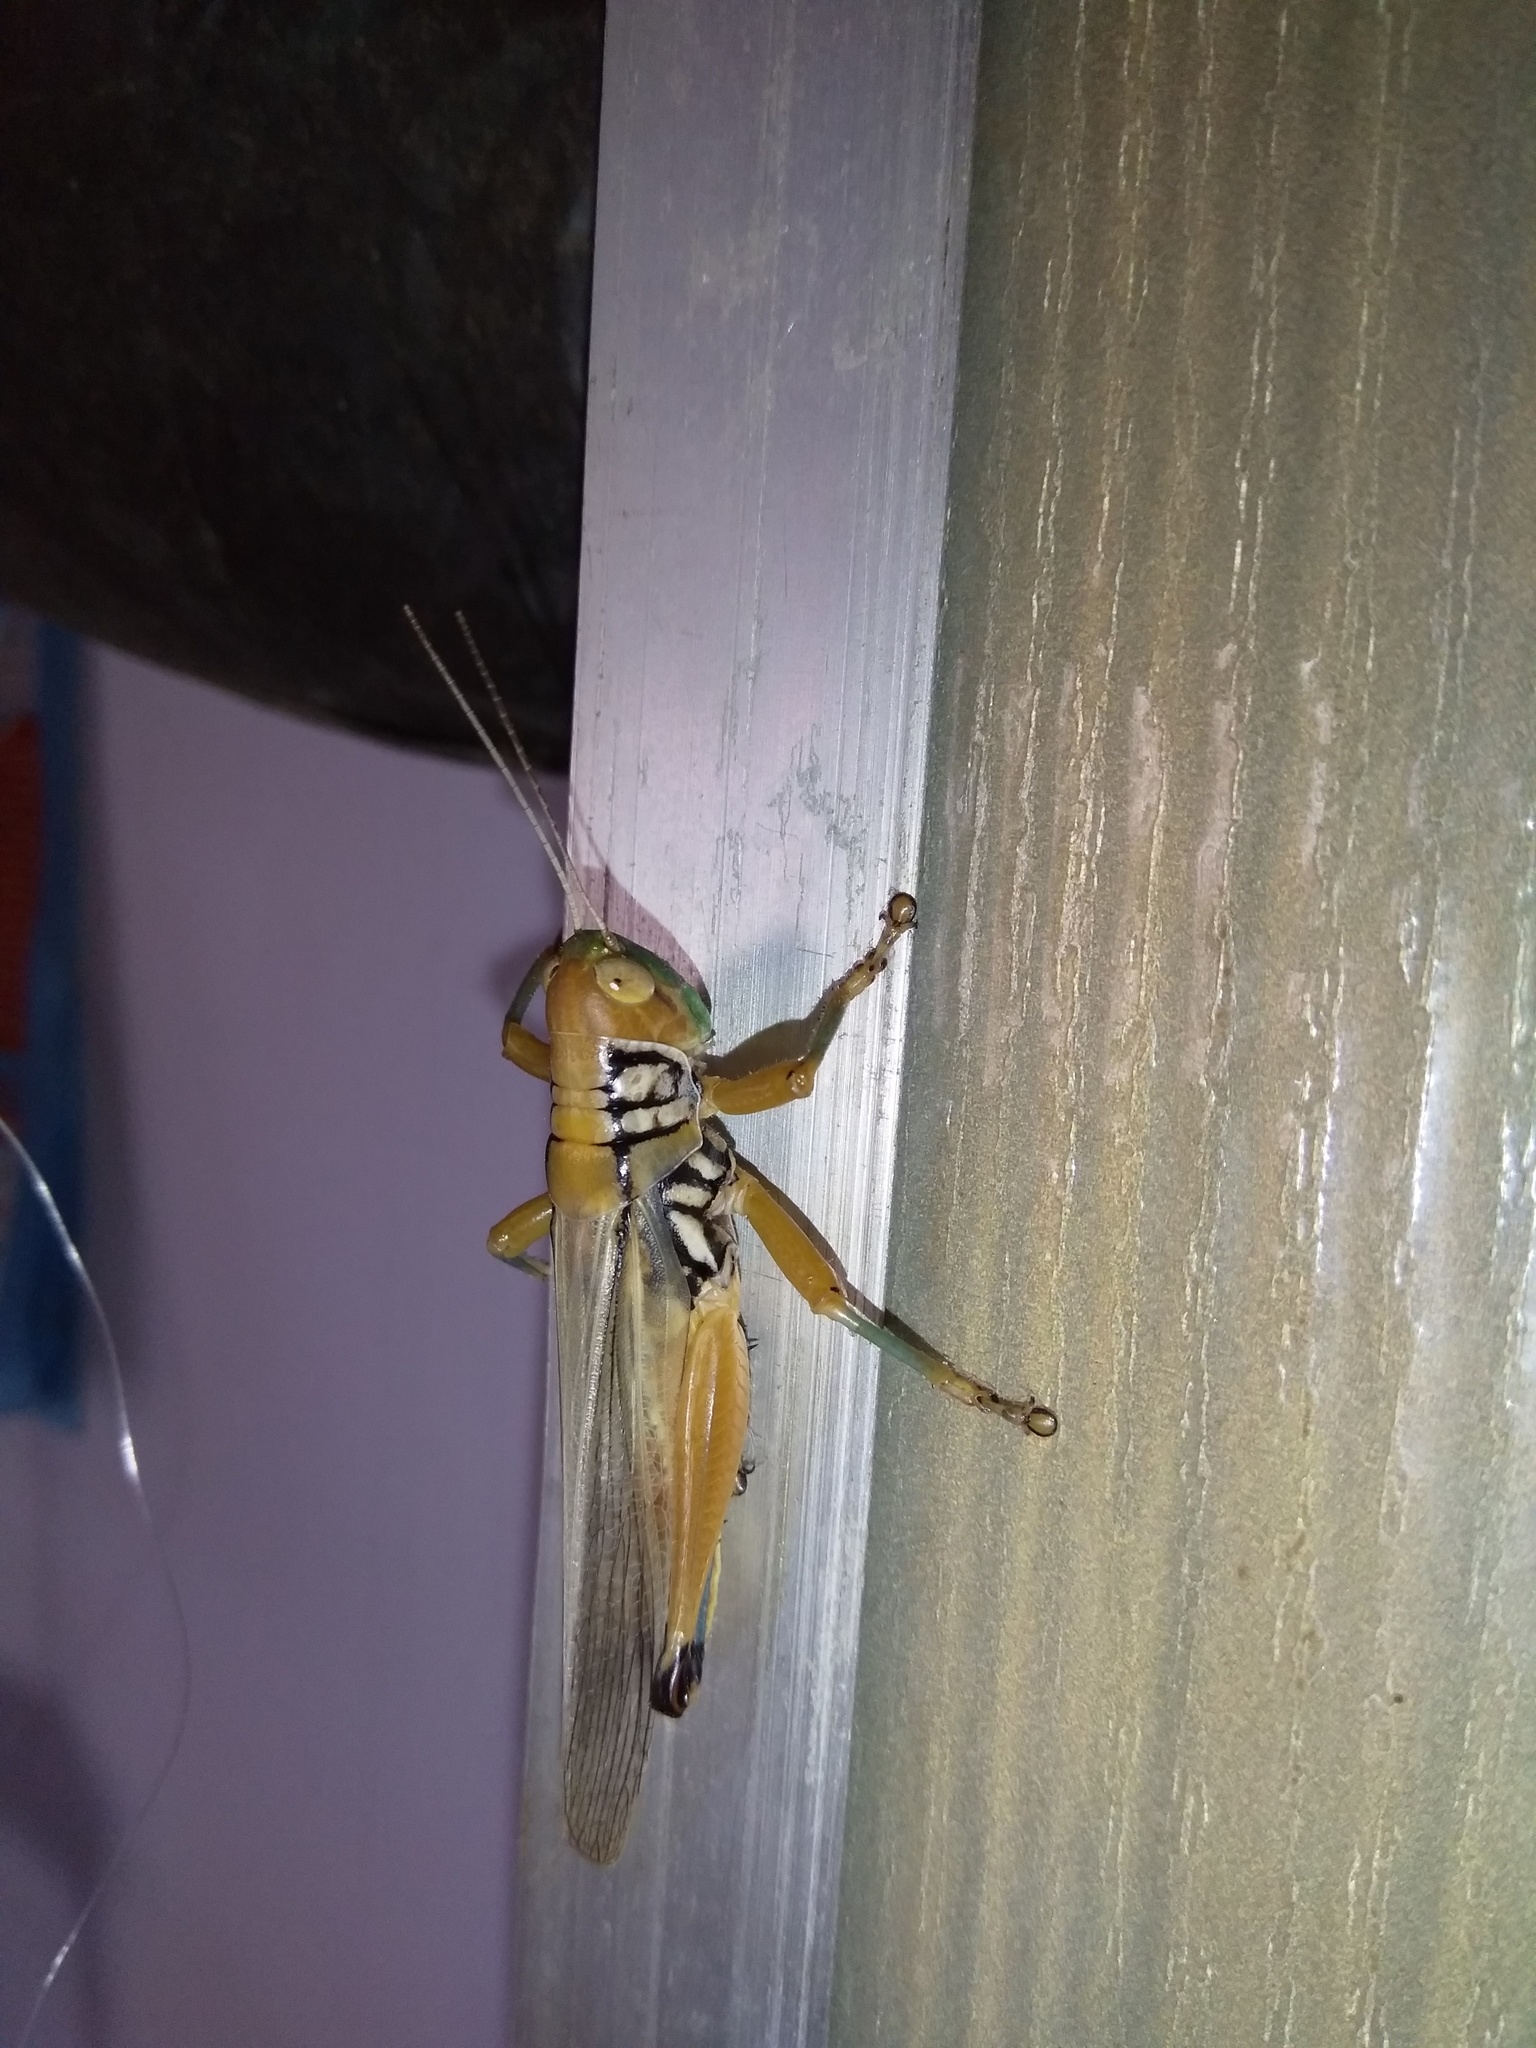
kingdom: Animalia
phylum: Arthropoda
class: Insecta
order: Orthoptera
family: Acrididae
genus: Hieroglyphus
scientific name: Hieroglyphus nigrorepletus
